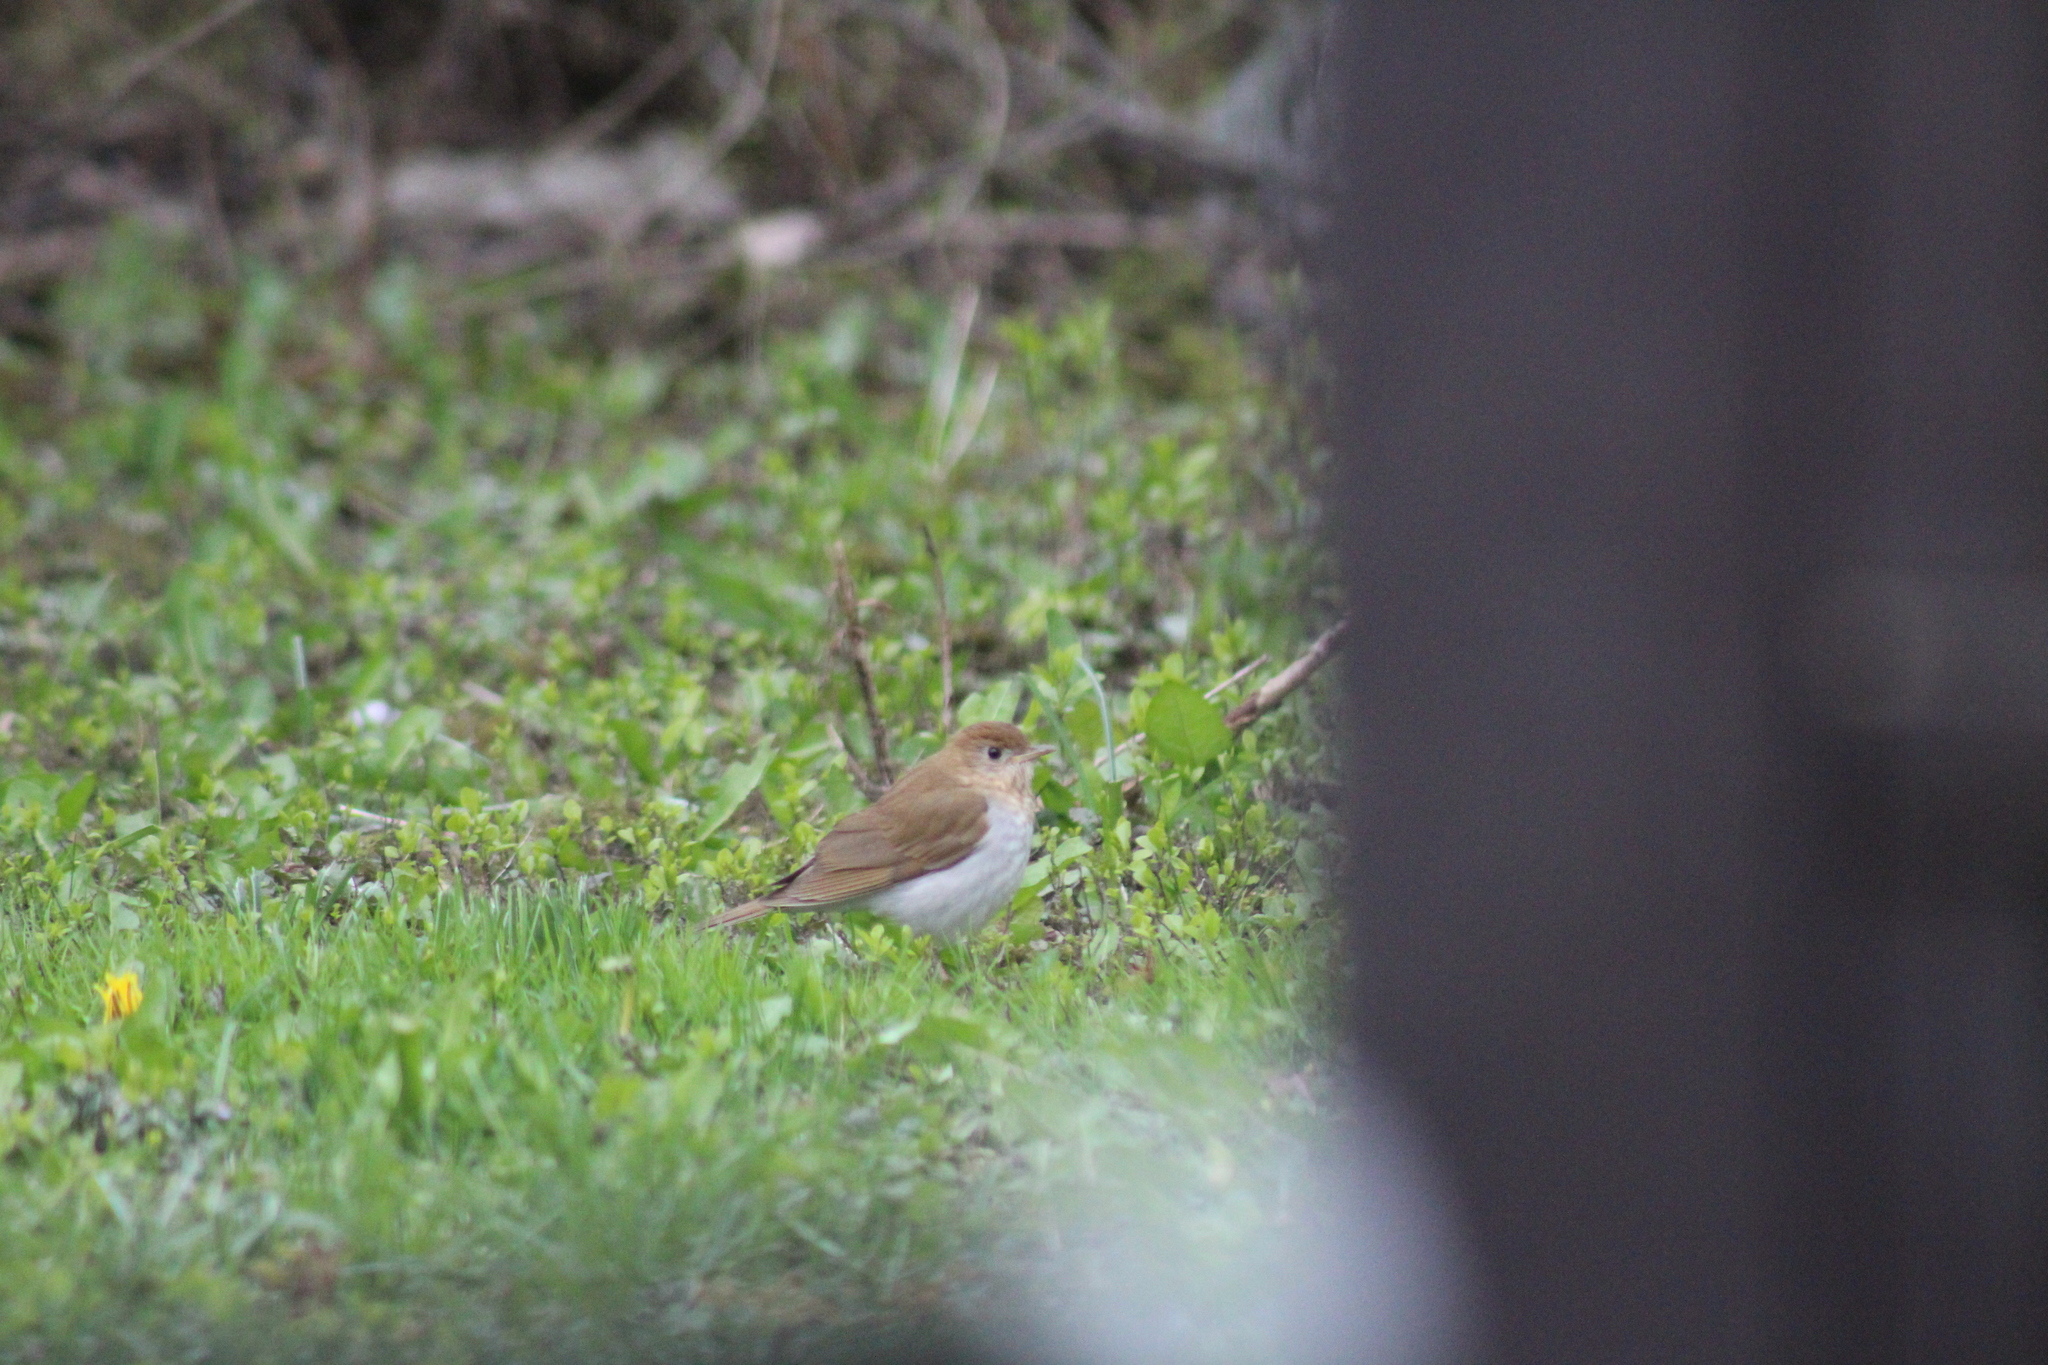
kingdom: Animalia
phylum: Chordata
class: Aves
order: Passeriformes
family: Turdidae
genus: Catharus
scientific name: Catharus fuscescens
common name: Veery
